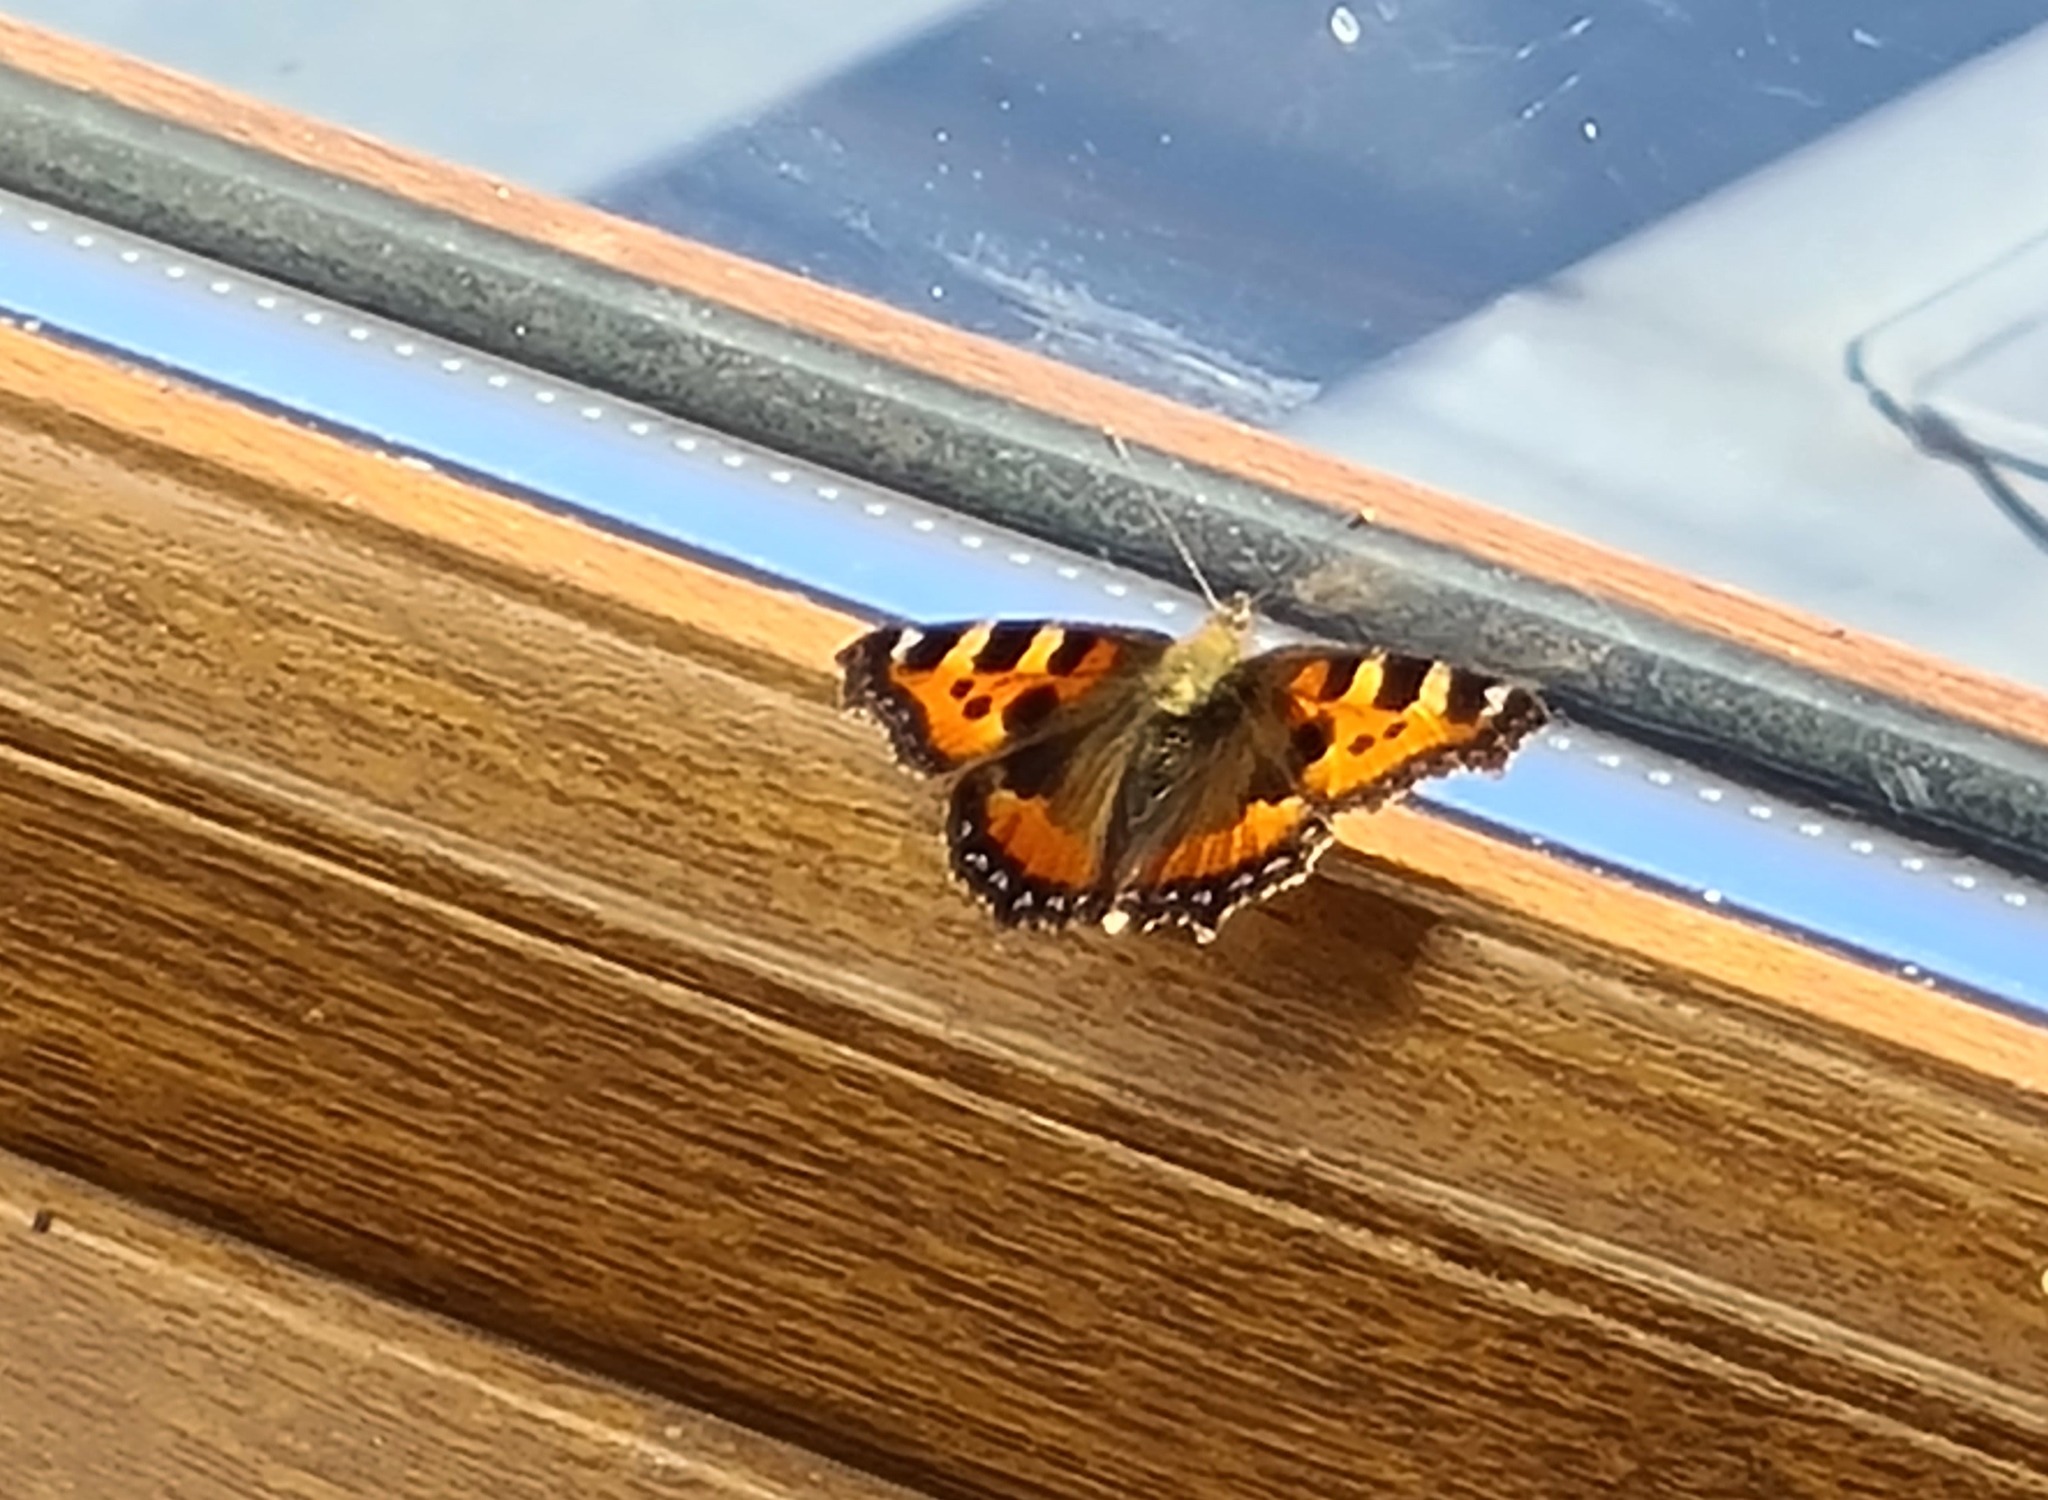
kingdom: Animalia
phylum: Arthropoda
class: Insecta
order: Lepidoptera
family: Nymphalidae
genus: Aglais
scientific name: Aglais urticae
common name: Small tortoiseshell
